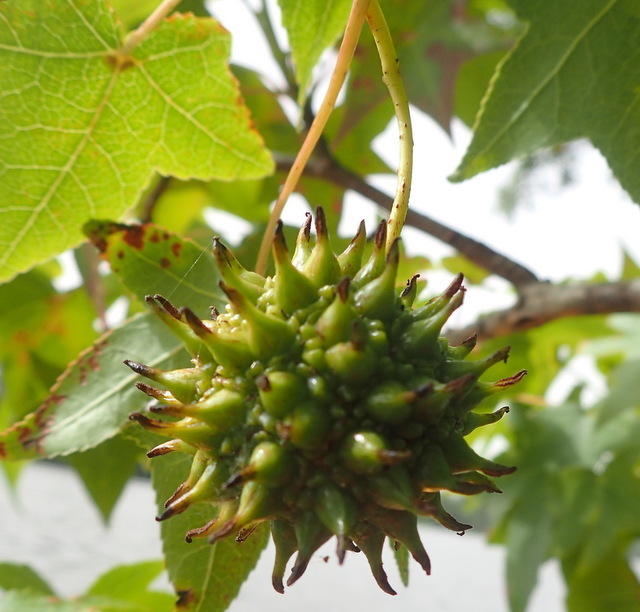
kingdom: Plantae
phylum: Tracheophyta
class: Magnoliopsida
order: Saxifragales
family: Altingiaceae
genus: Liquidambar
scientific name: Liquidambar styraciflua
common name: Sweet gum
